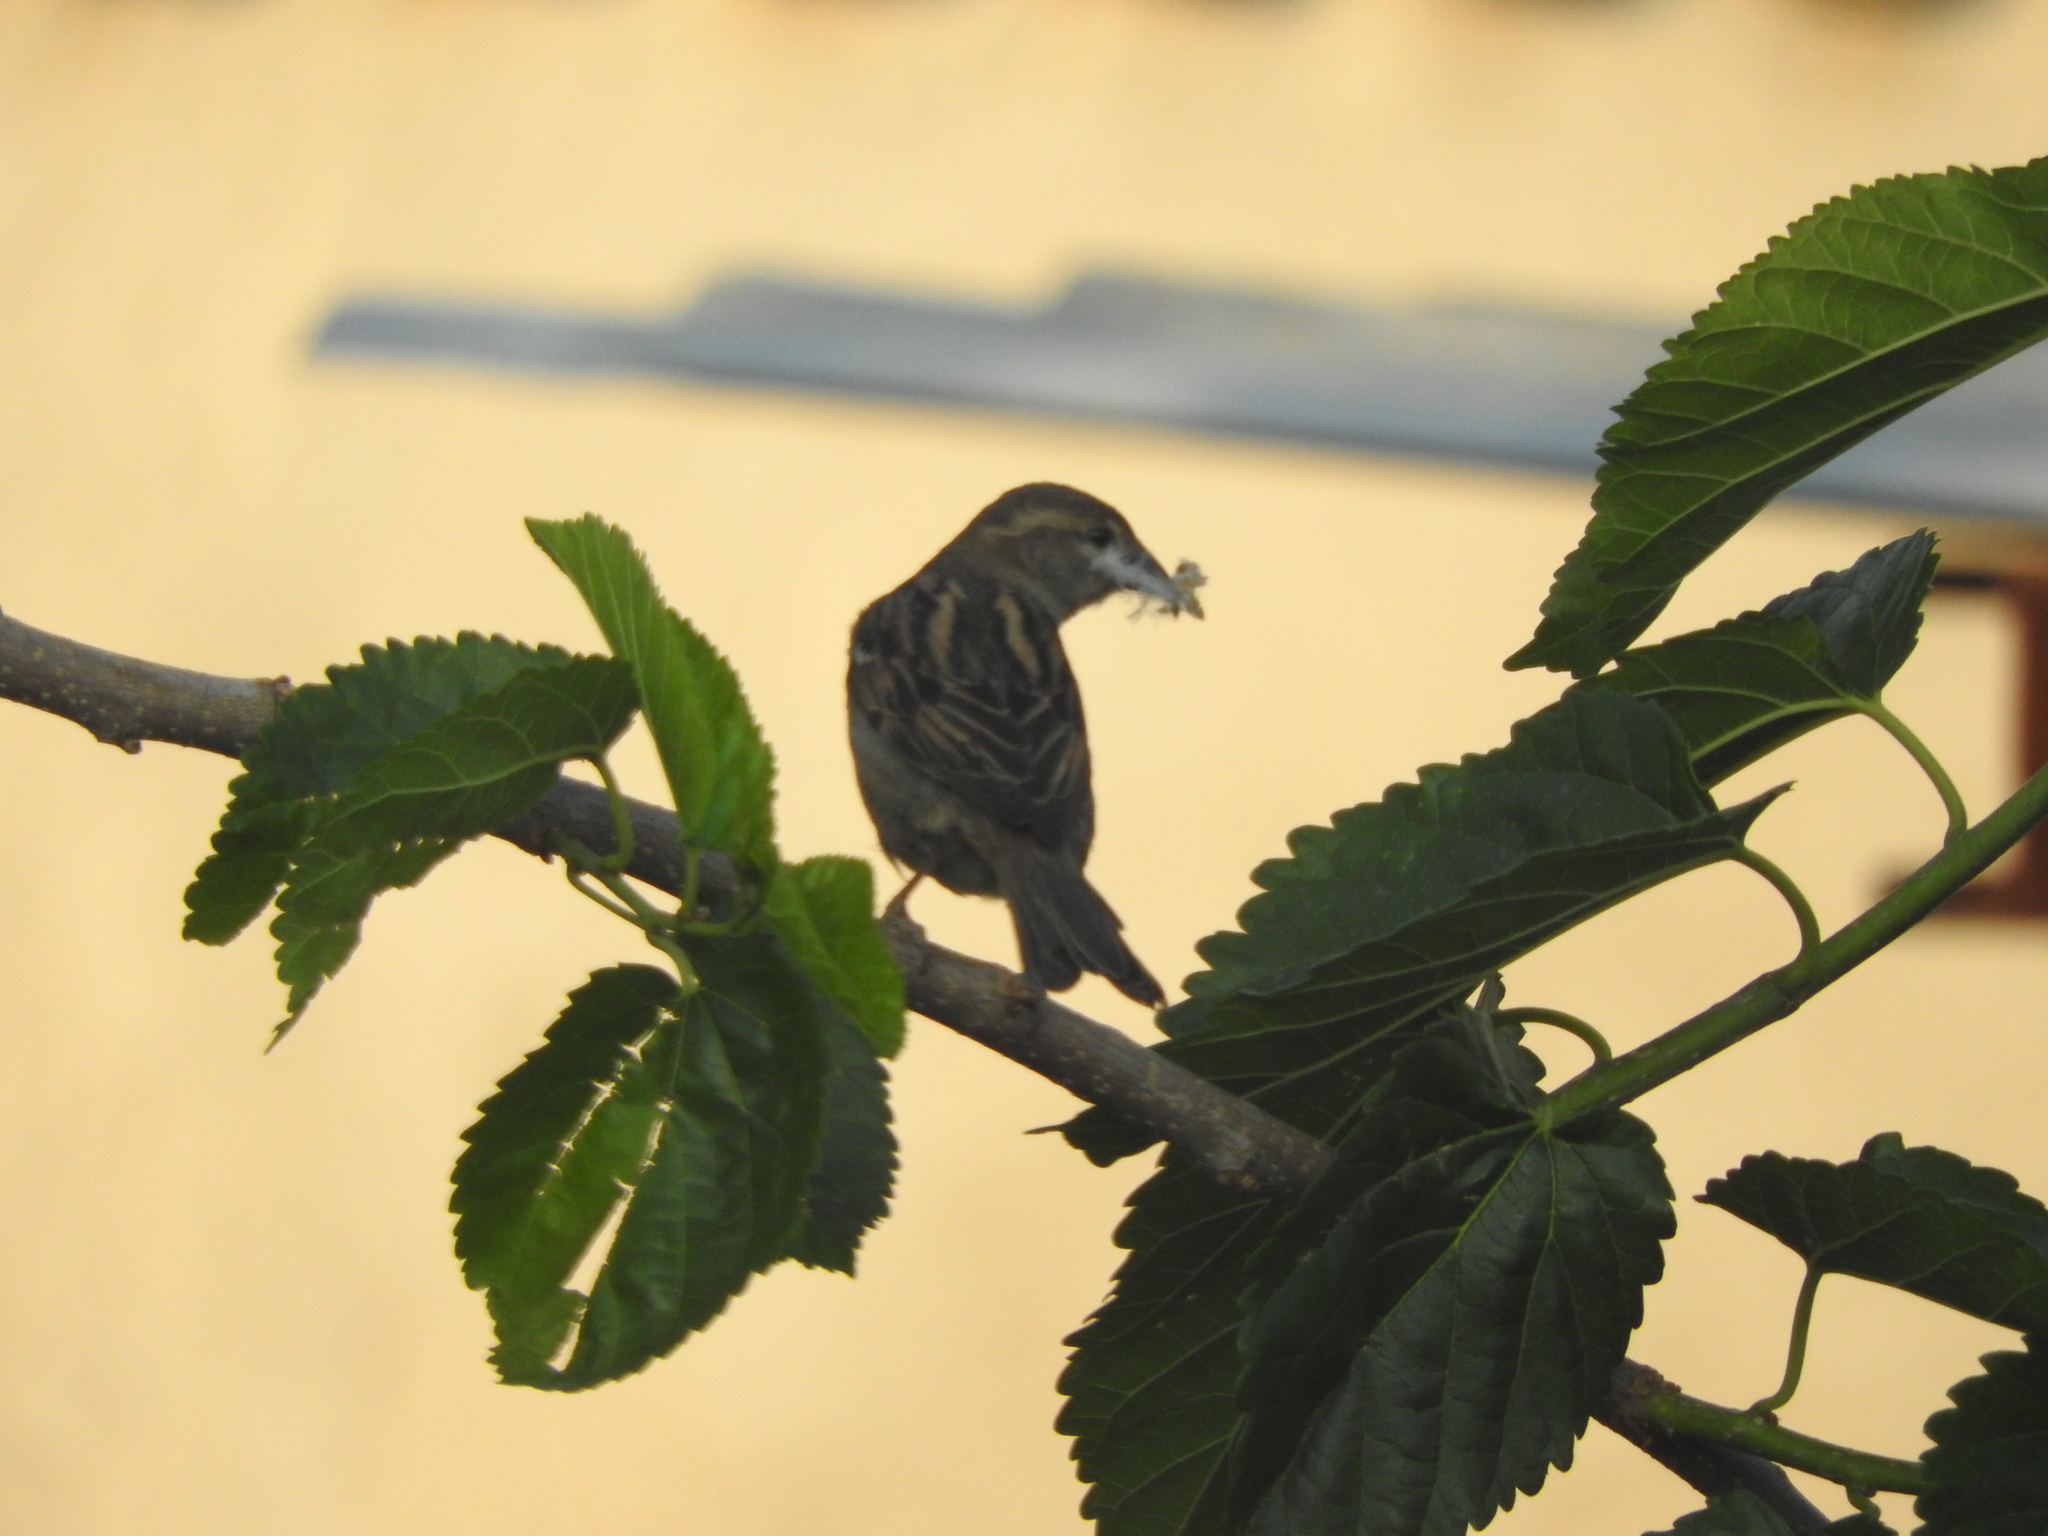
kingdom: Animalia
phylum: Chordata
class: Aves
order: Passeriformes
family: Passeridae
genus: Passer
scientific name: Passer domesticus
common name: House sparrow
